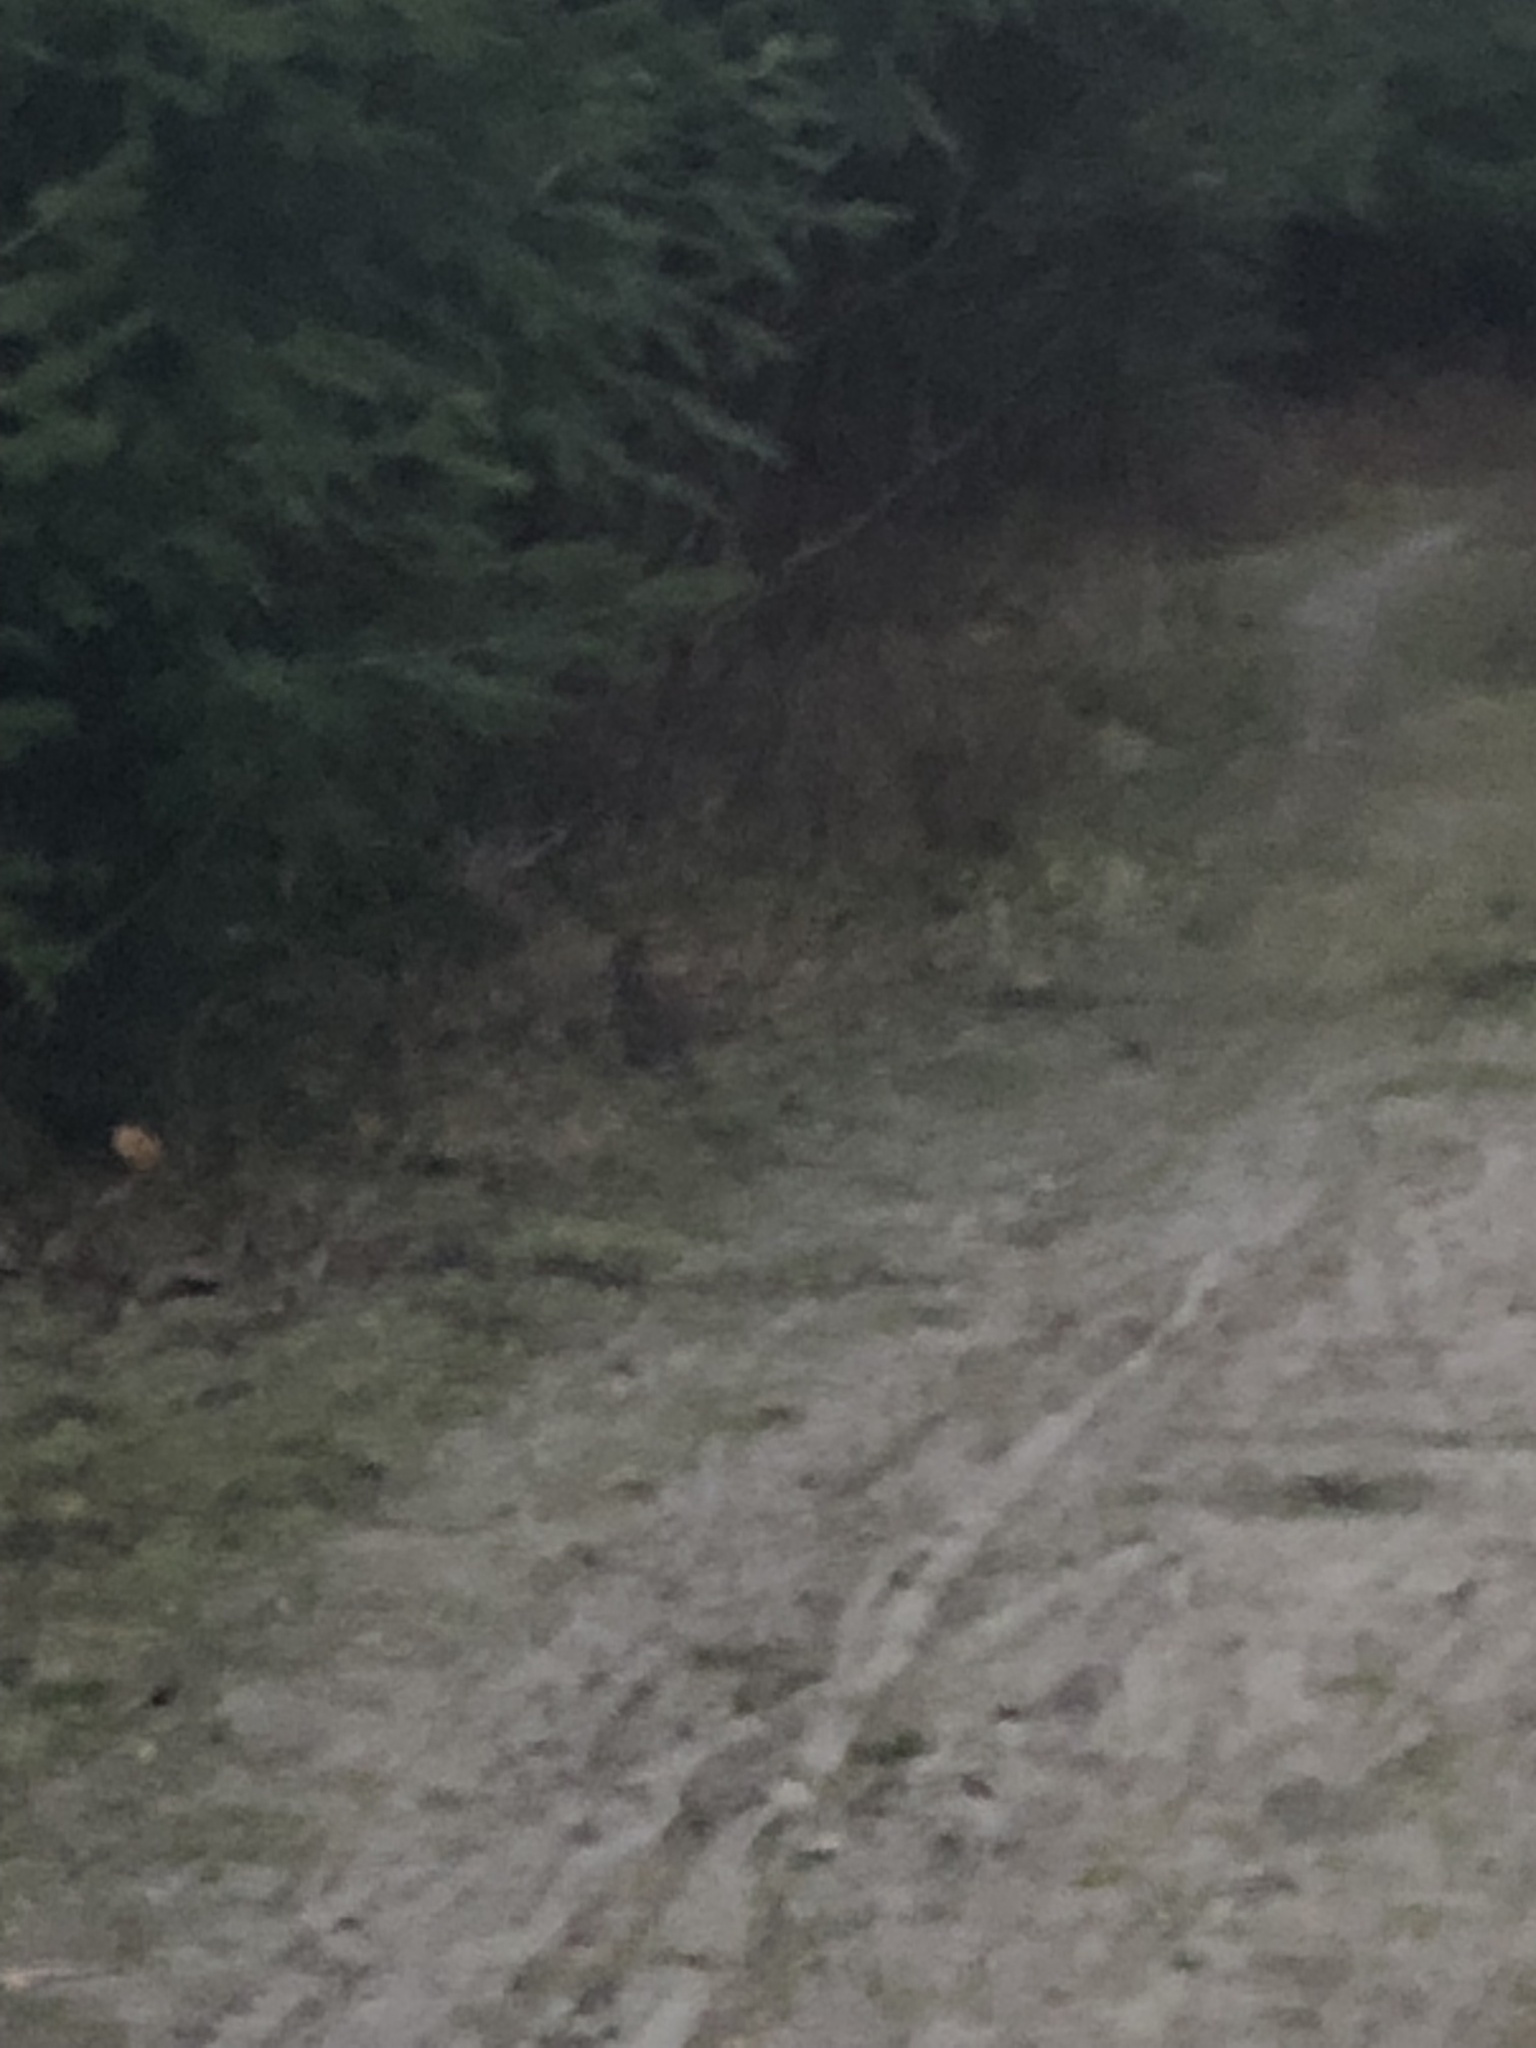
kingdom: Animalia
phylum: Chordata
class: Mammalia
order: Lagomorpha
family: Leporidae
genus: Sylvilagus
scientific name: Sylvilagus floridanus
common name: Eastern cottontail
